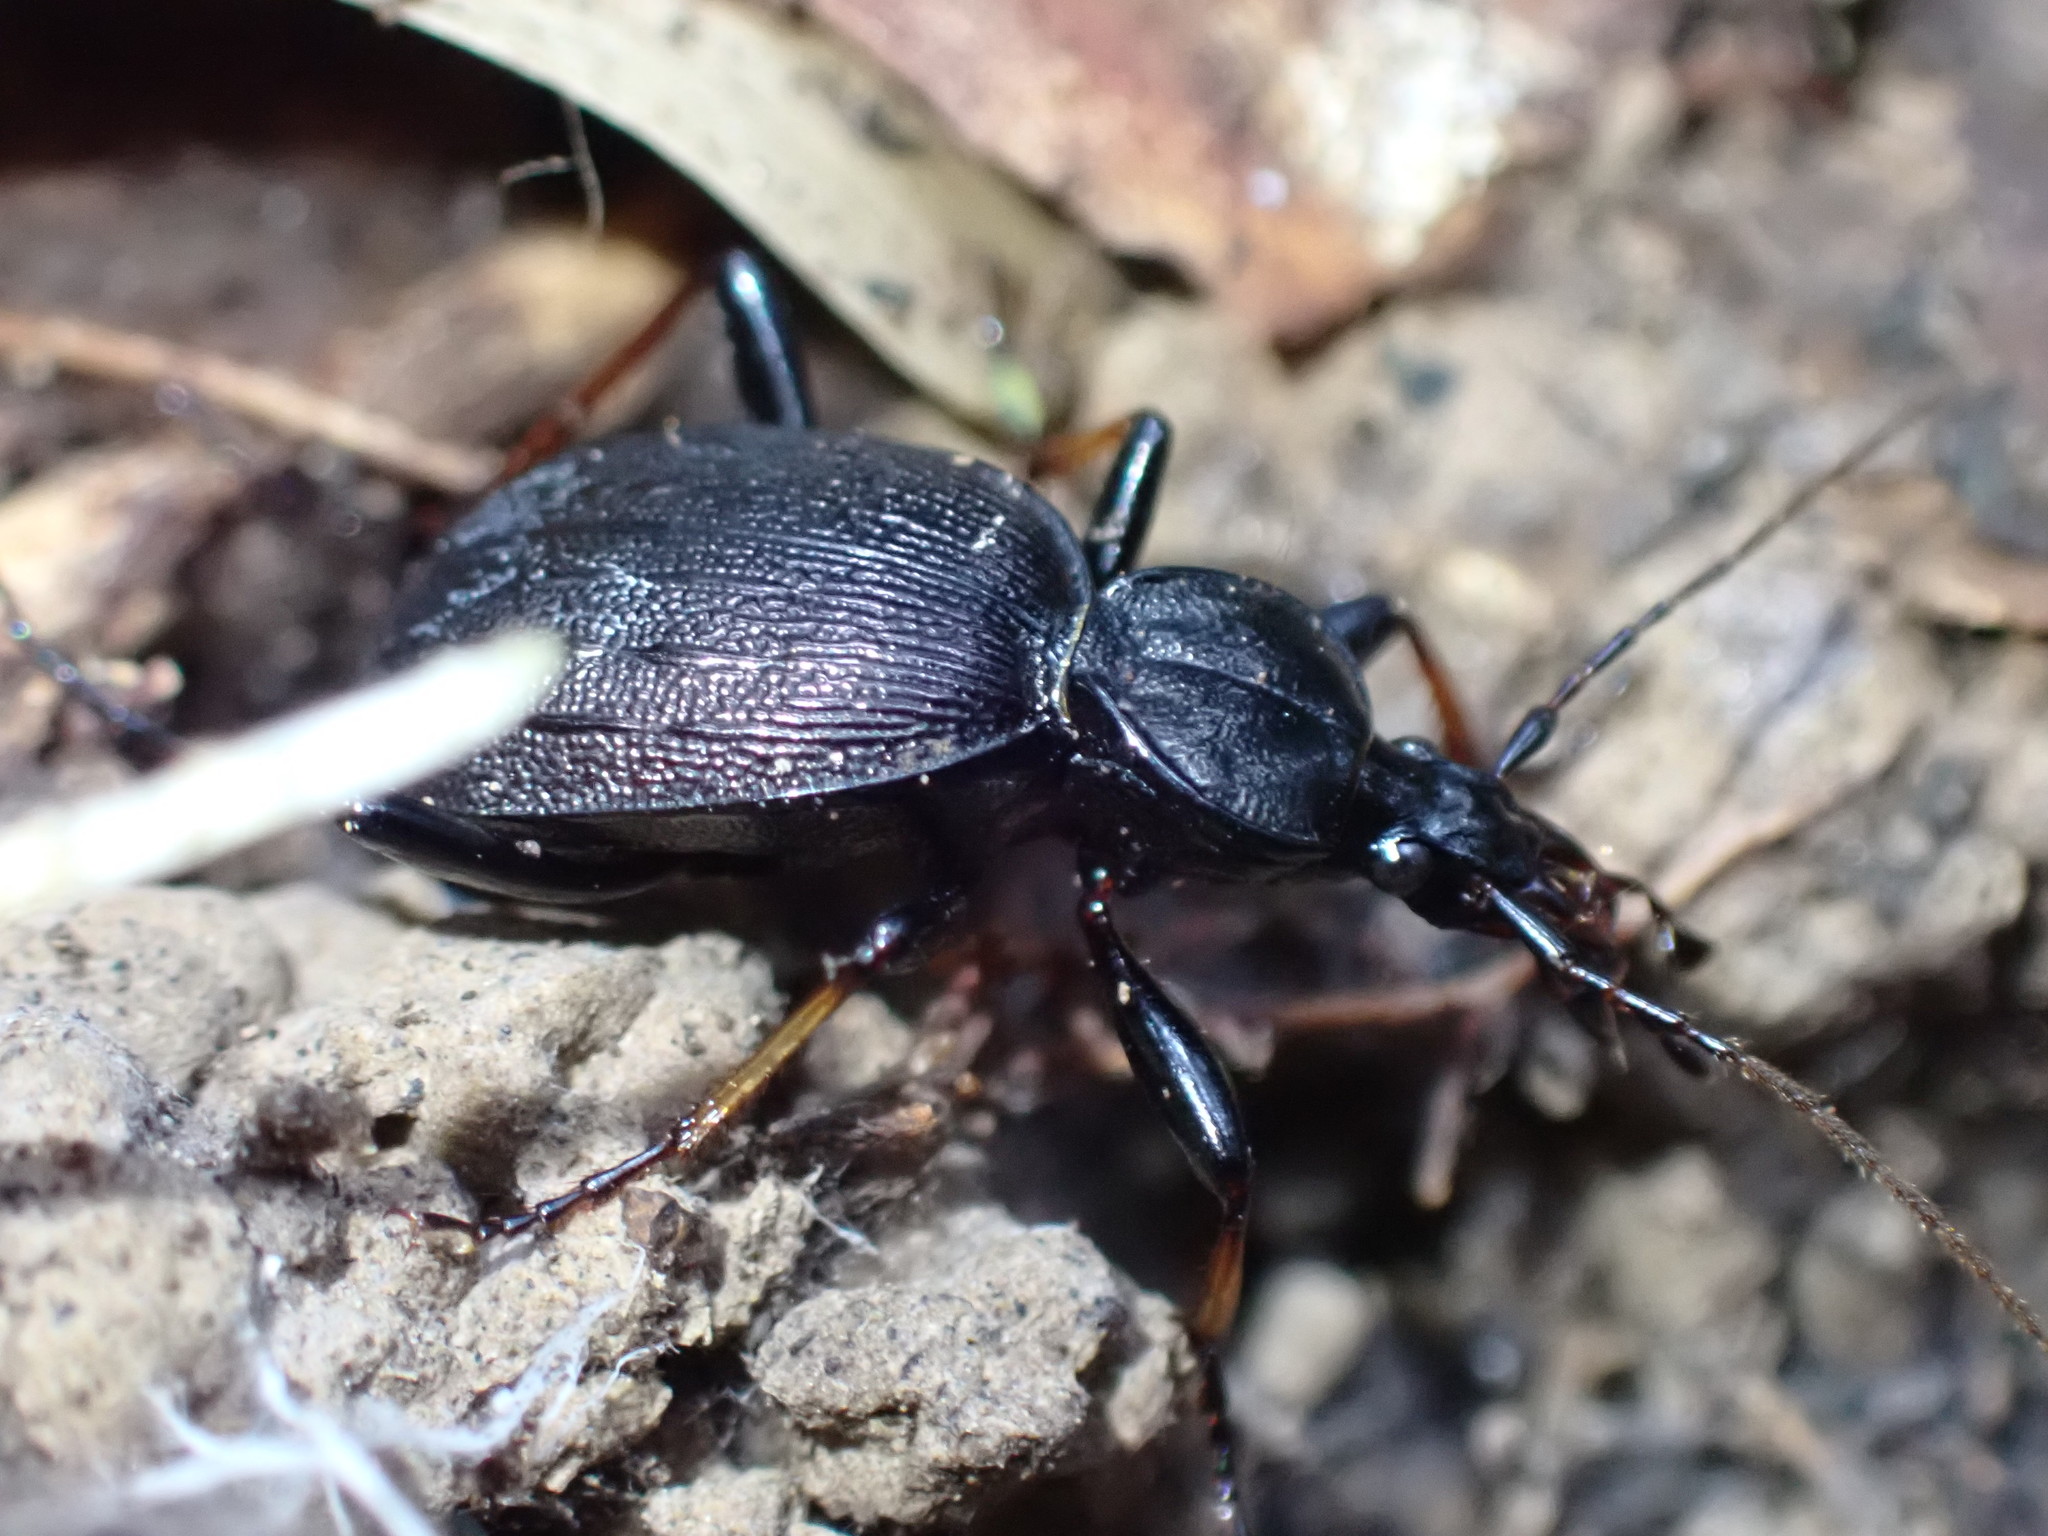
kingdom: Animalia
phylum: Arthropoda
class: Insecta
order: Coleoptera
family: Carabidae
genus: Cychrus
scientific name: Cychrus attenuatus
